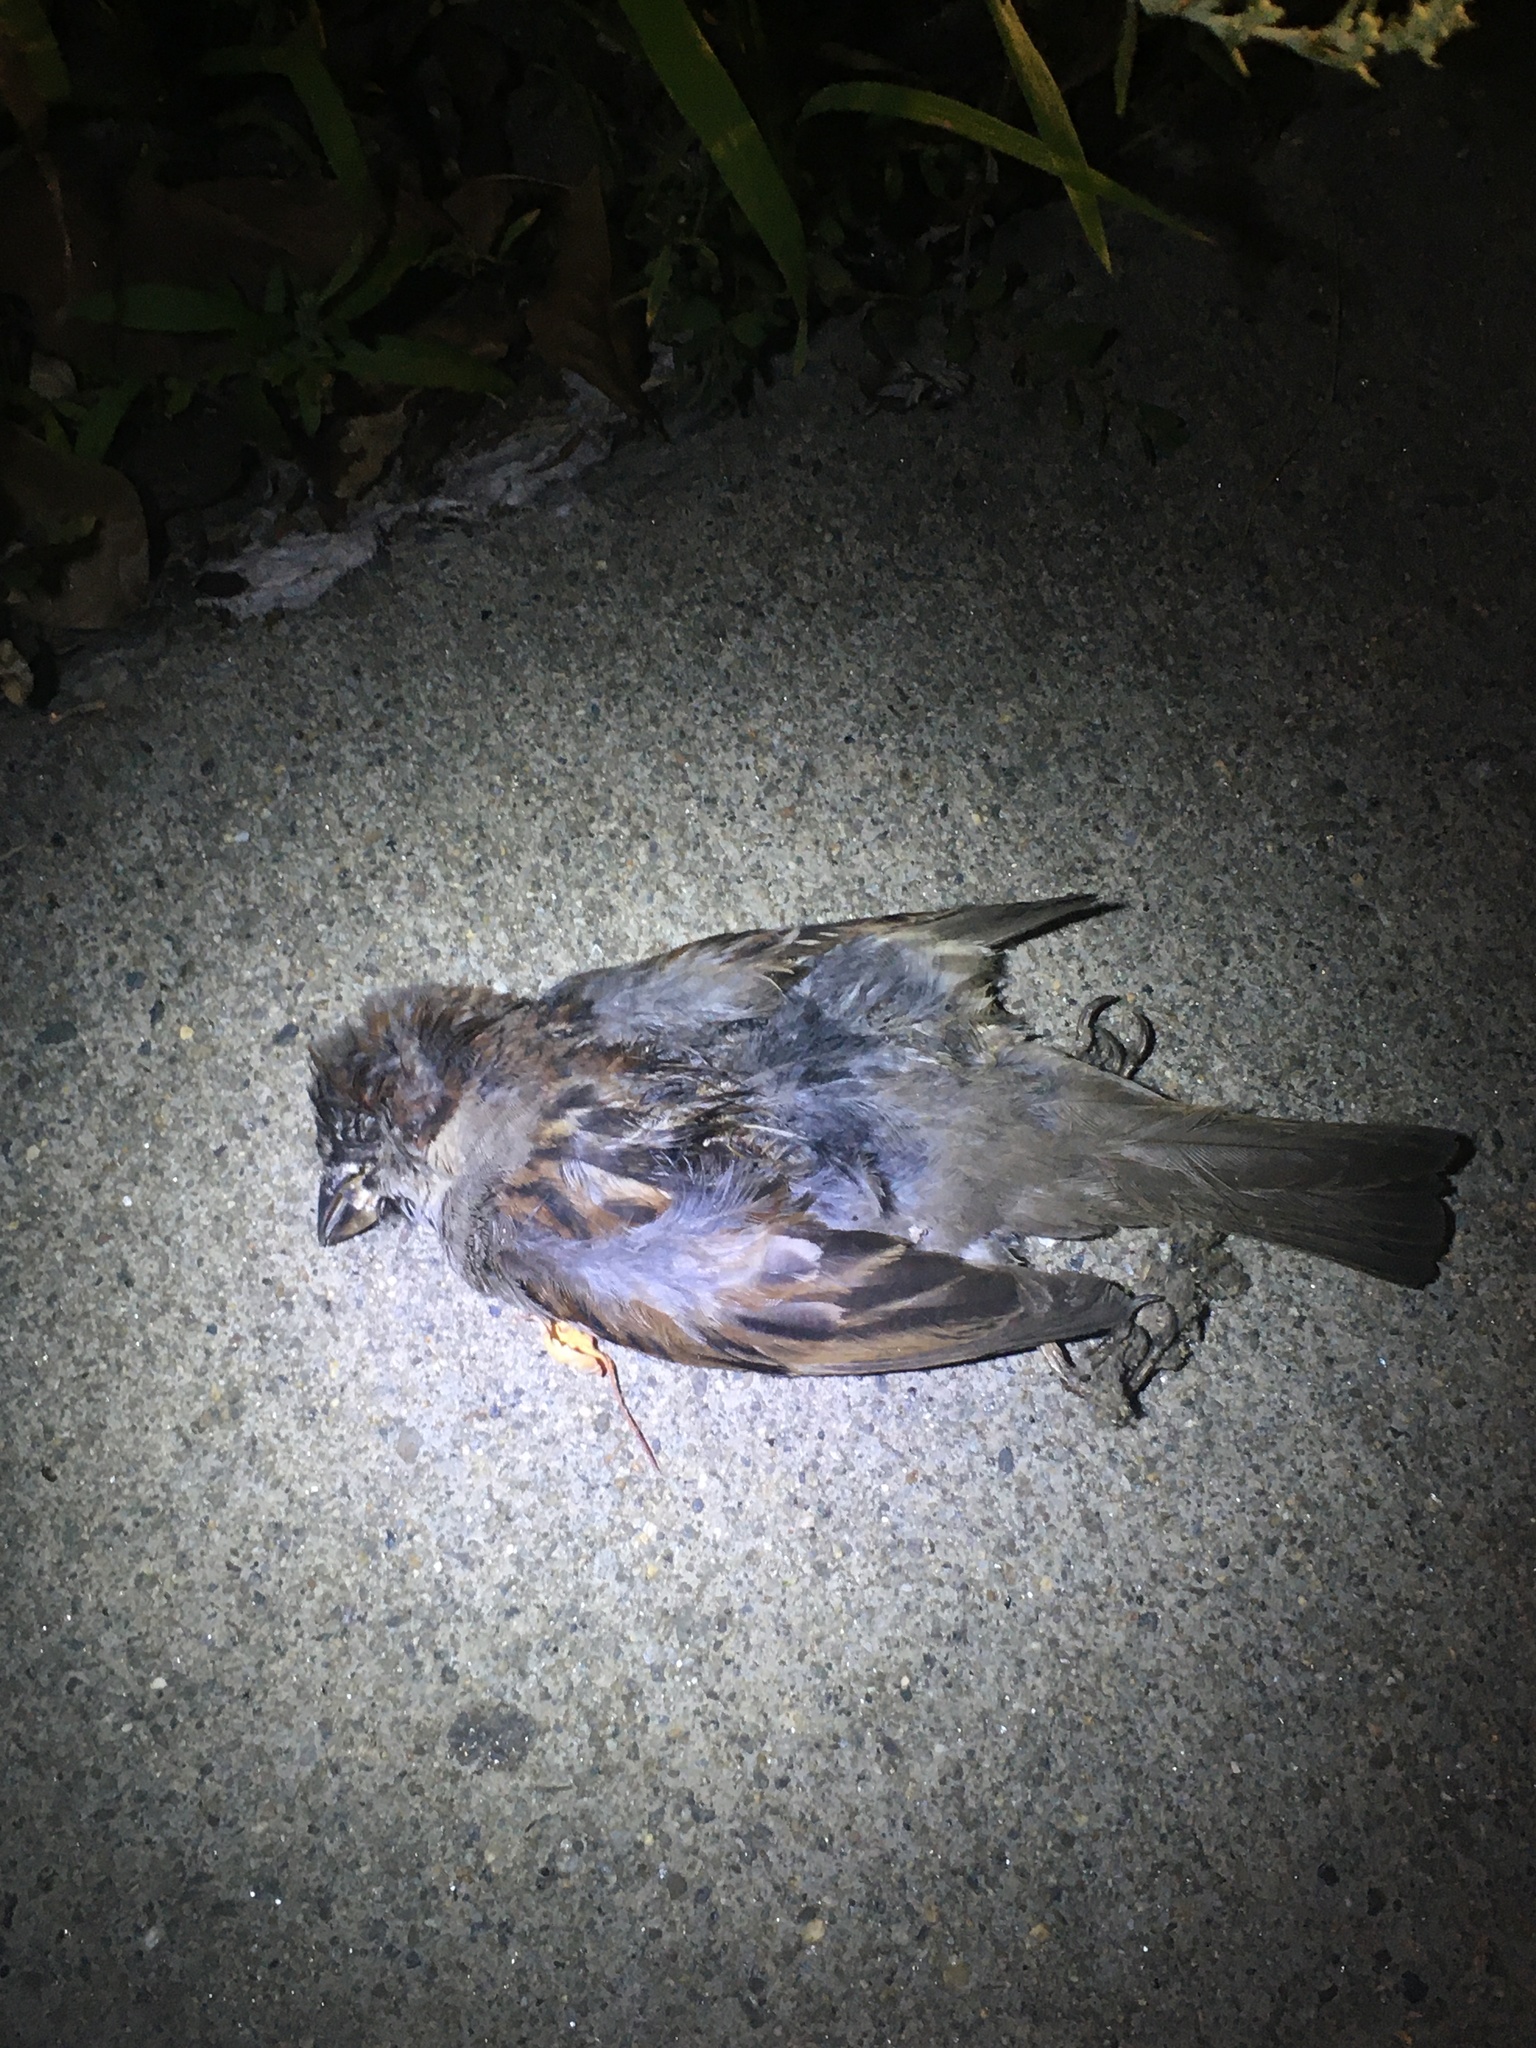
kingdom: Animalia
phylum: Chordata
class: Aves
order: Passeriformes
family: Passeridae
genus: Passer
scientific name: Passer domesticus
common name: House sparrow
